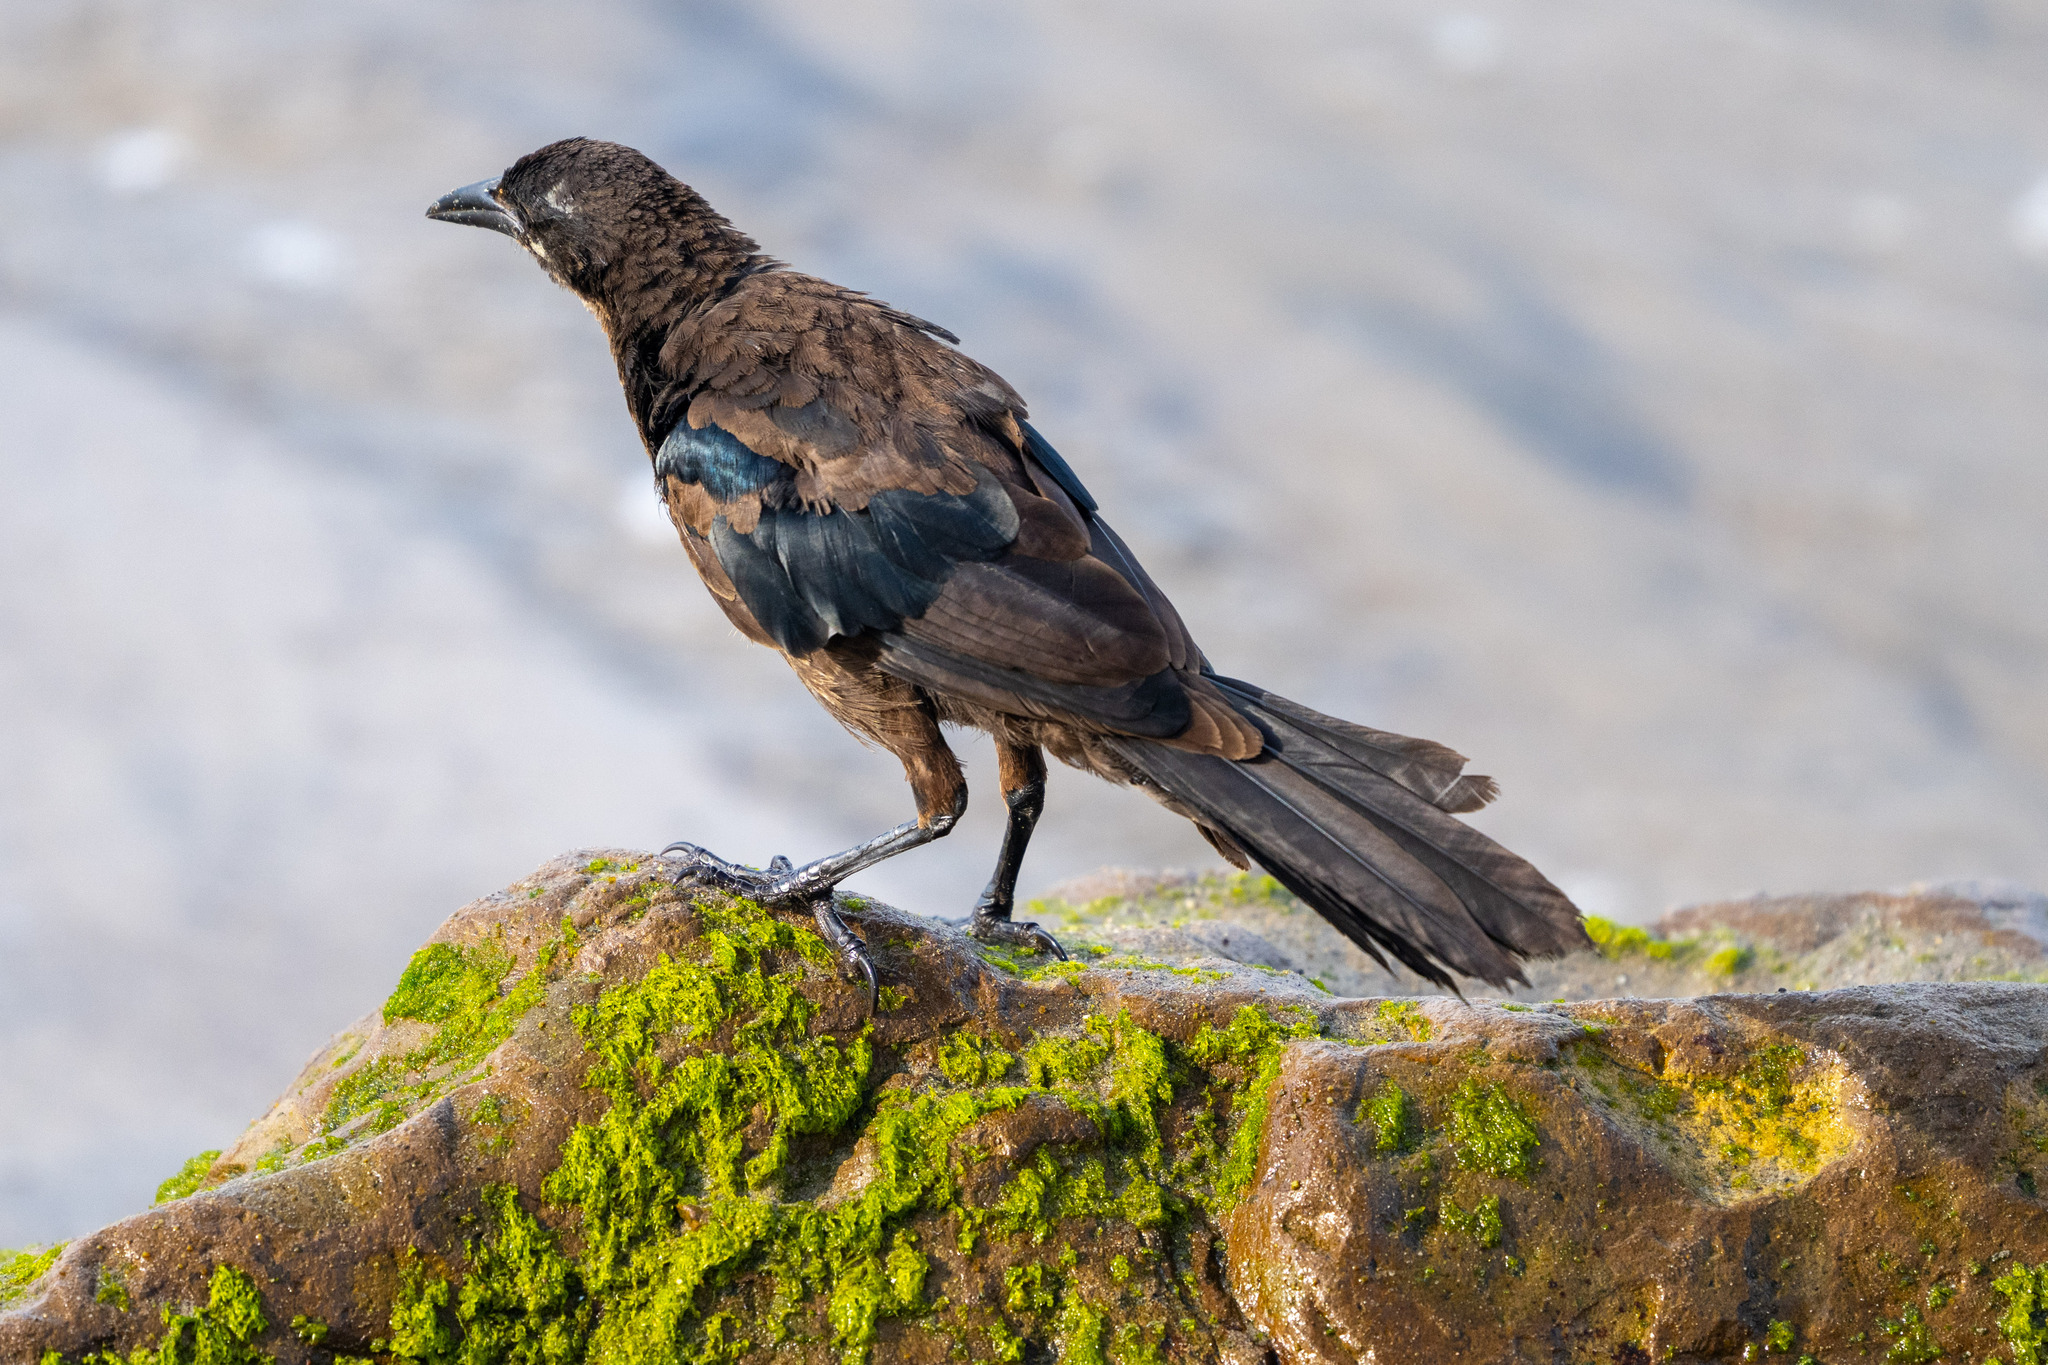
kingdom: Animalia
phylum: Chordata
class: Aves
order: Passeriformes
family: Icteridae
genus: Quiscalus
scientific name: Quiscalus mexicanus
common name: Great-tailed grackle
